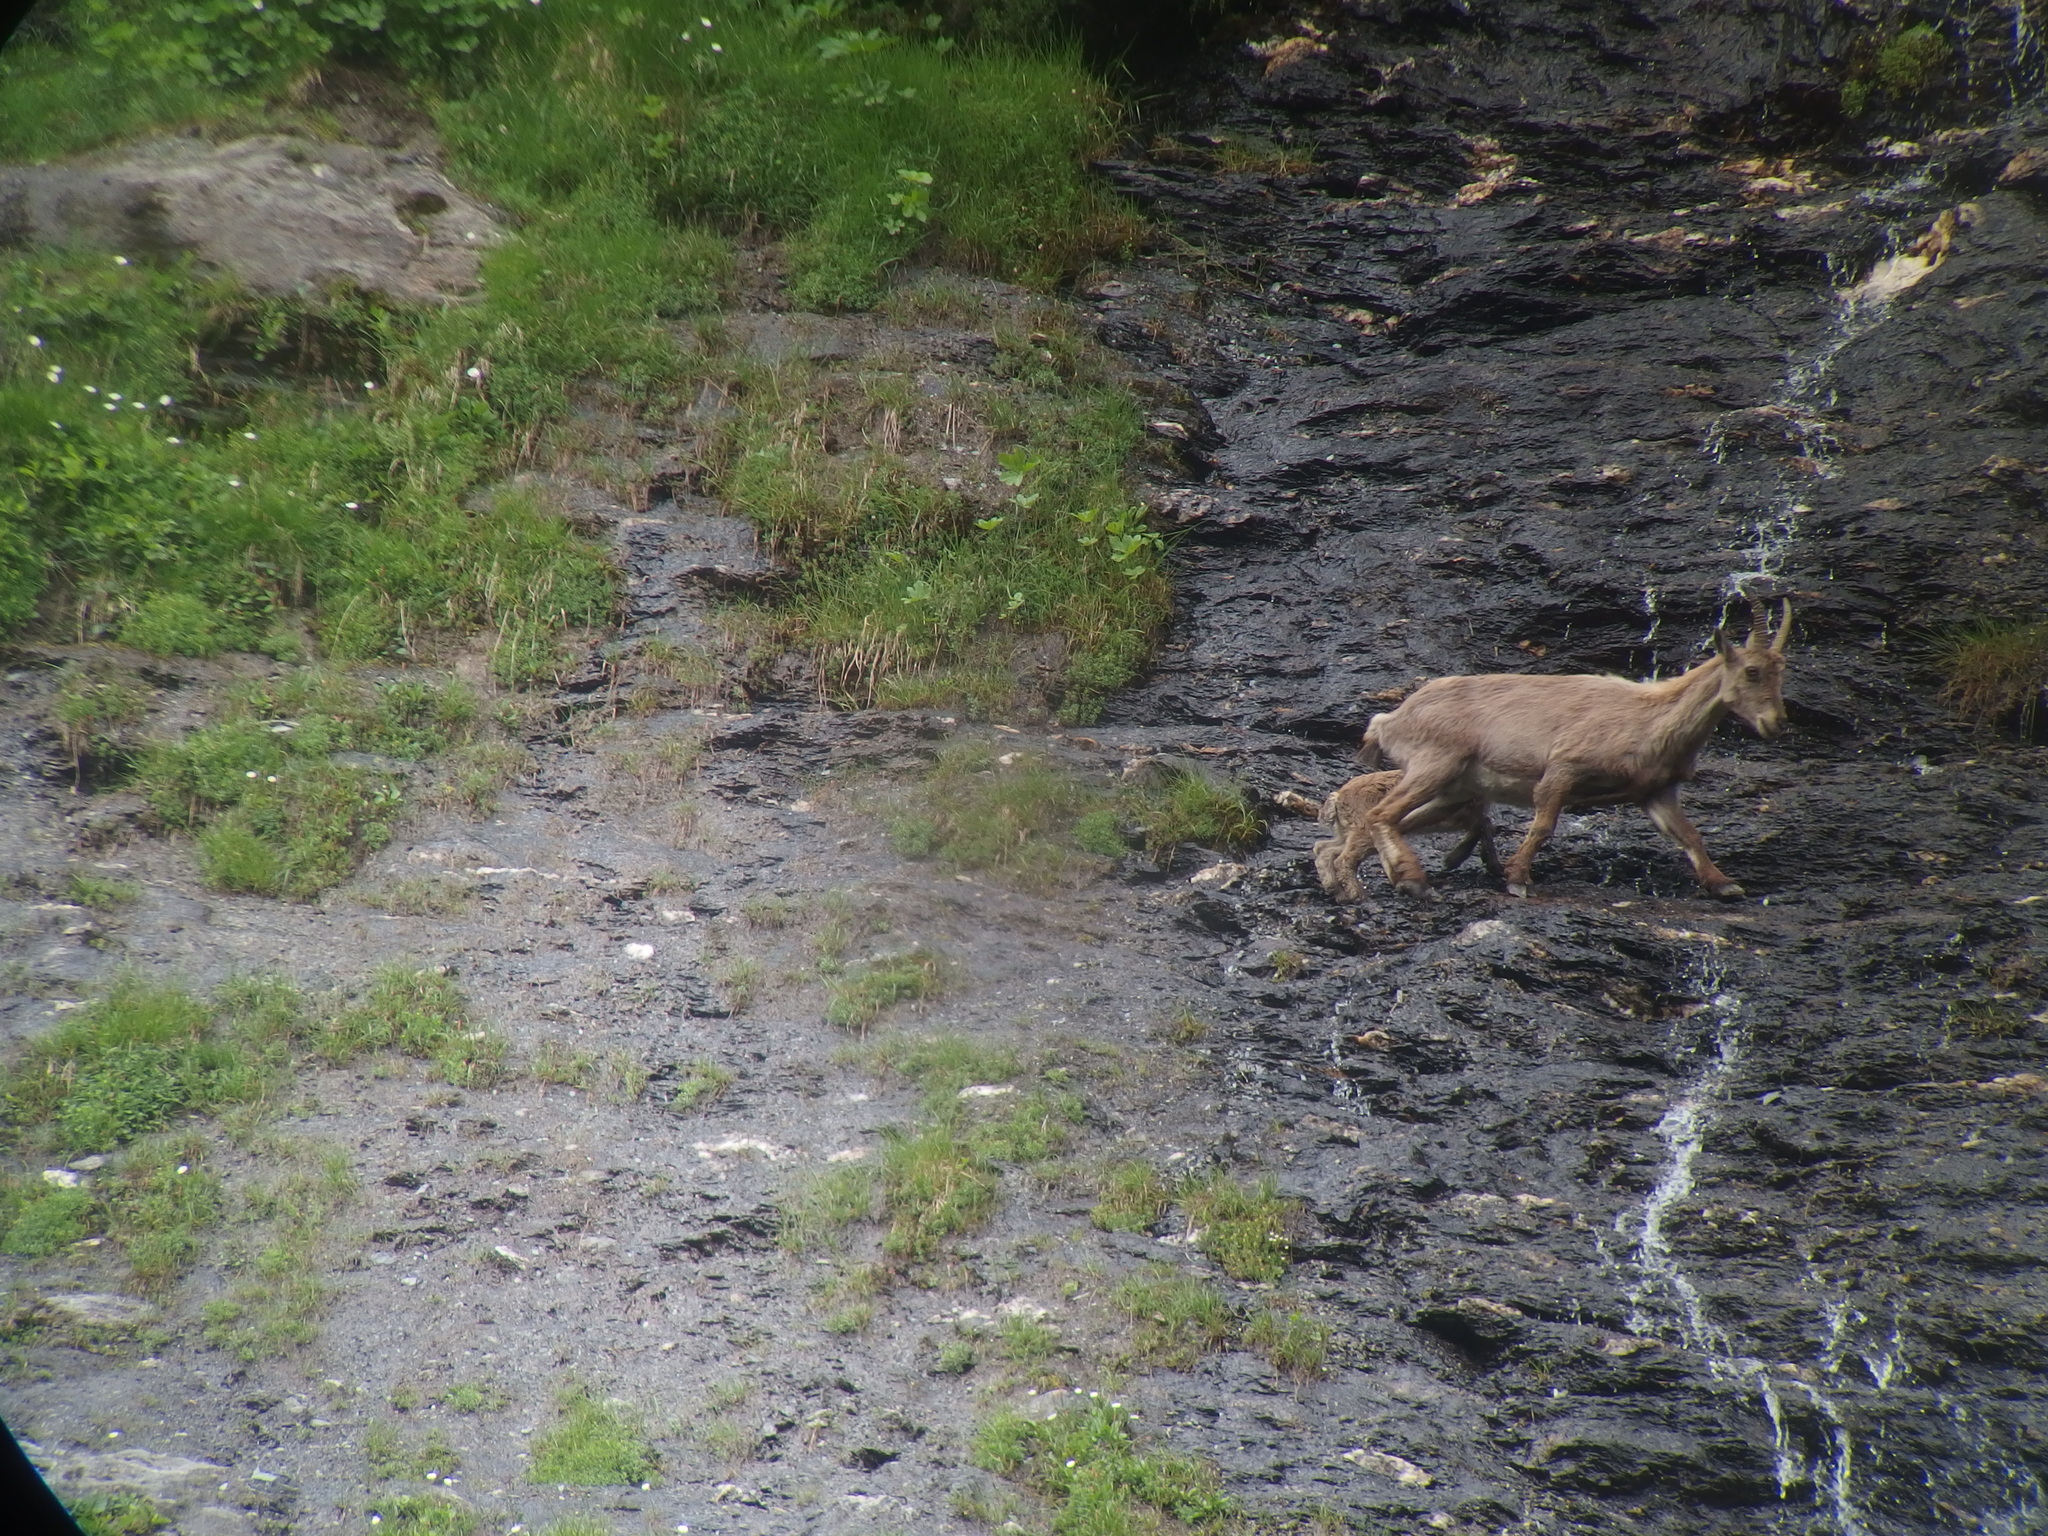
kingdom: Animalia
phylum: Chordata
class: Mammalia
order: Artiodactyla
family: Bovidae
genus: Capra
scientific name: Capra ibex
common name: Alpine ibex
